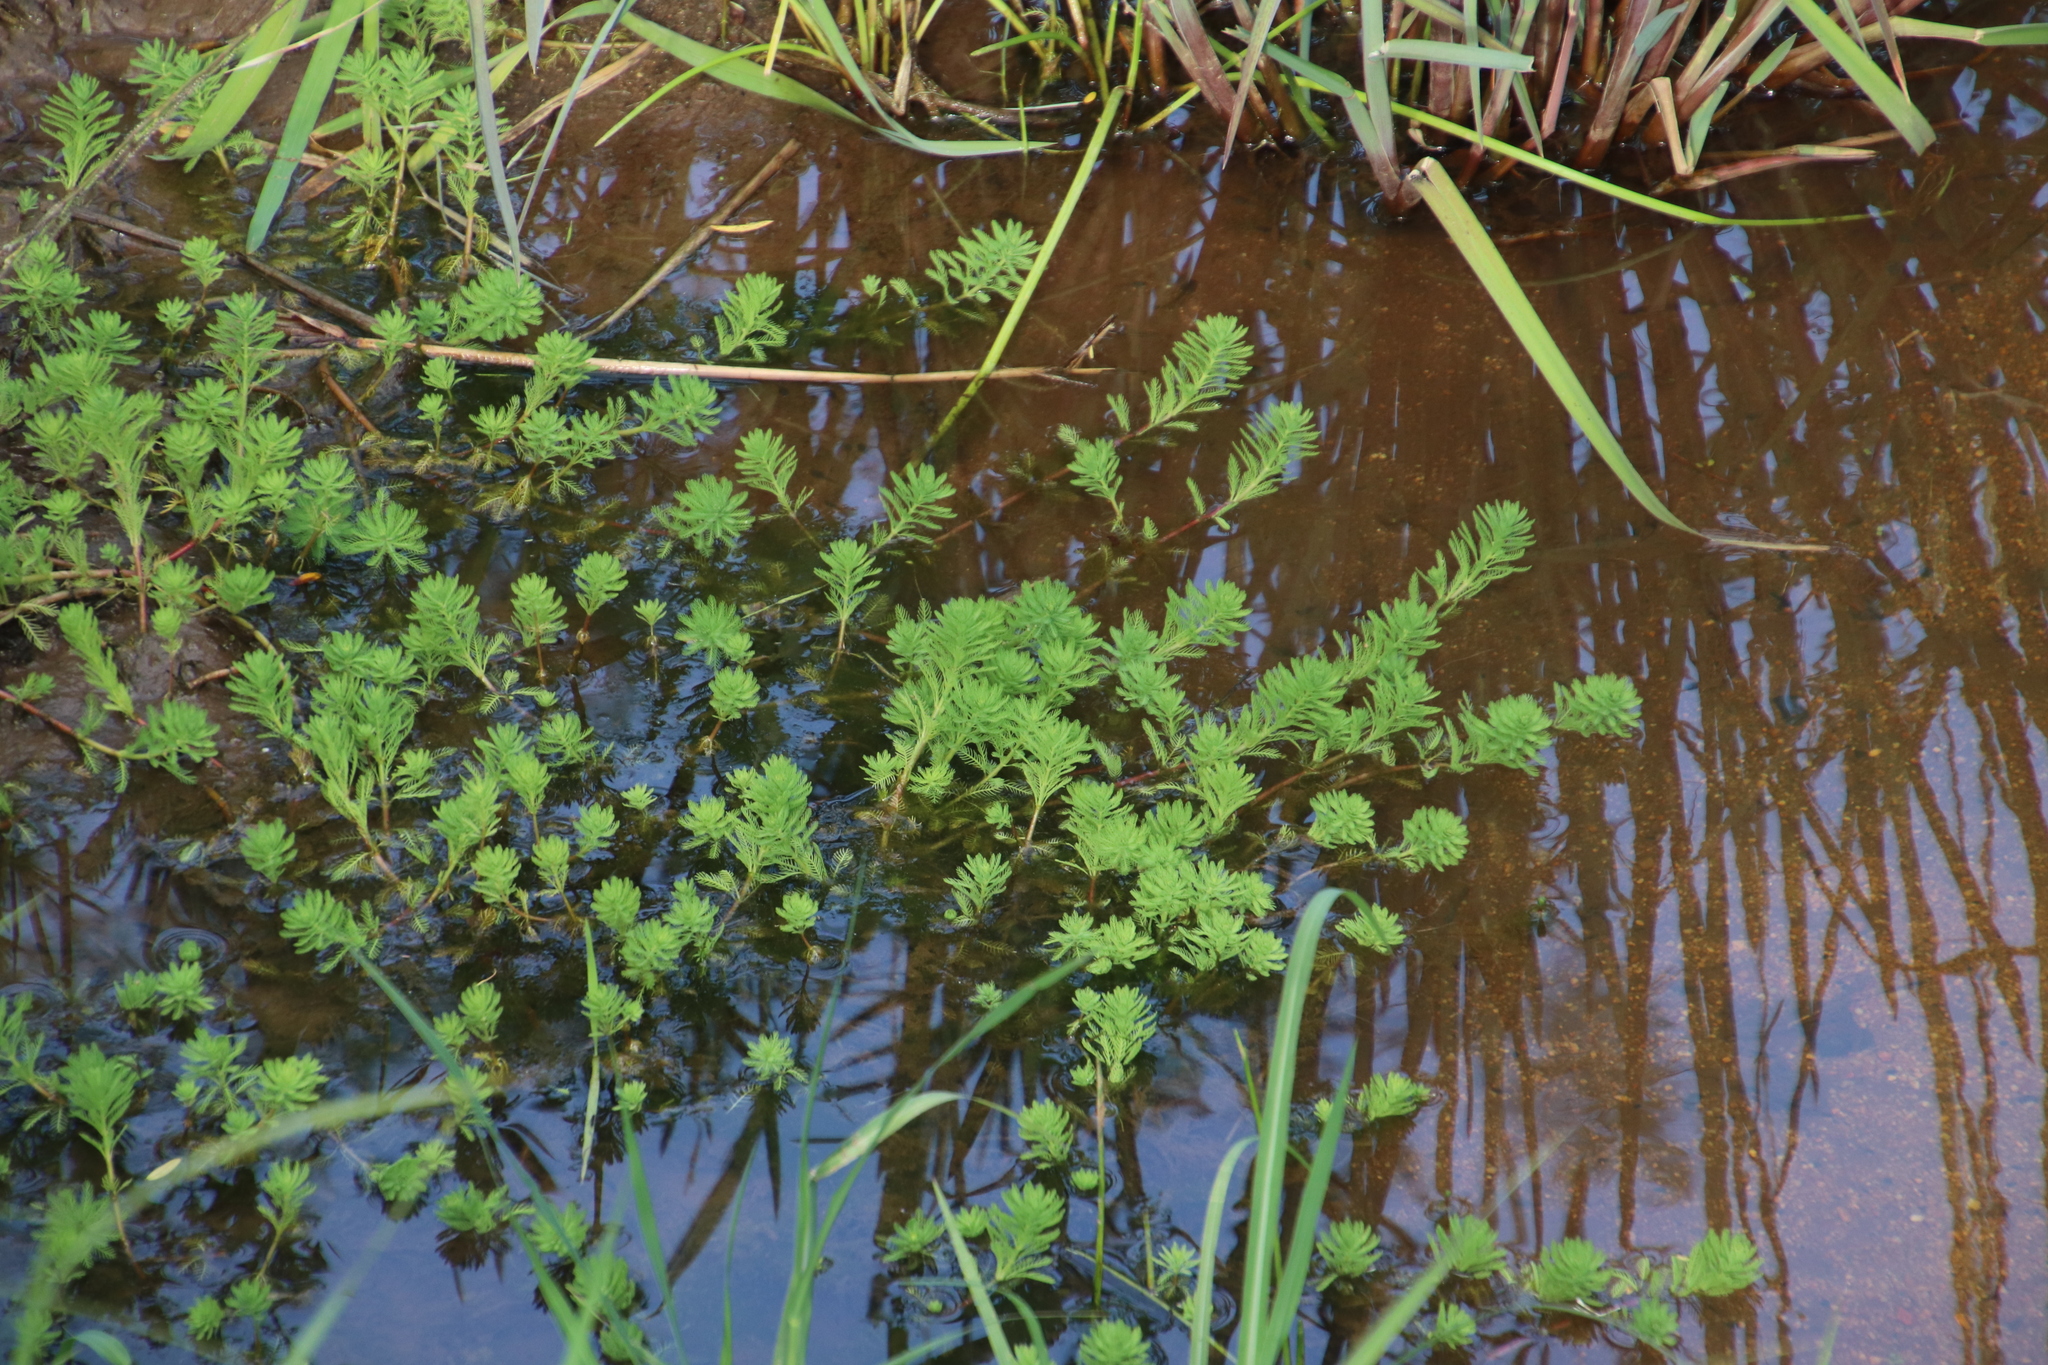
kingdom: Plantae
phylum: Tracheophyta
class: Magnoliopsida
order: Saxifragales
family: Haloragaceae
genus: Myriophyllum
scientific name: Myriophyllum aquaticum
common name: Parrot's feather
